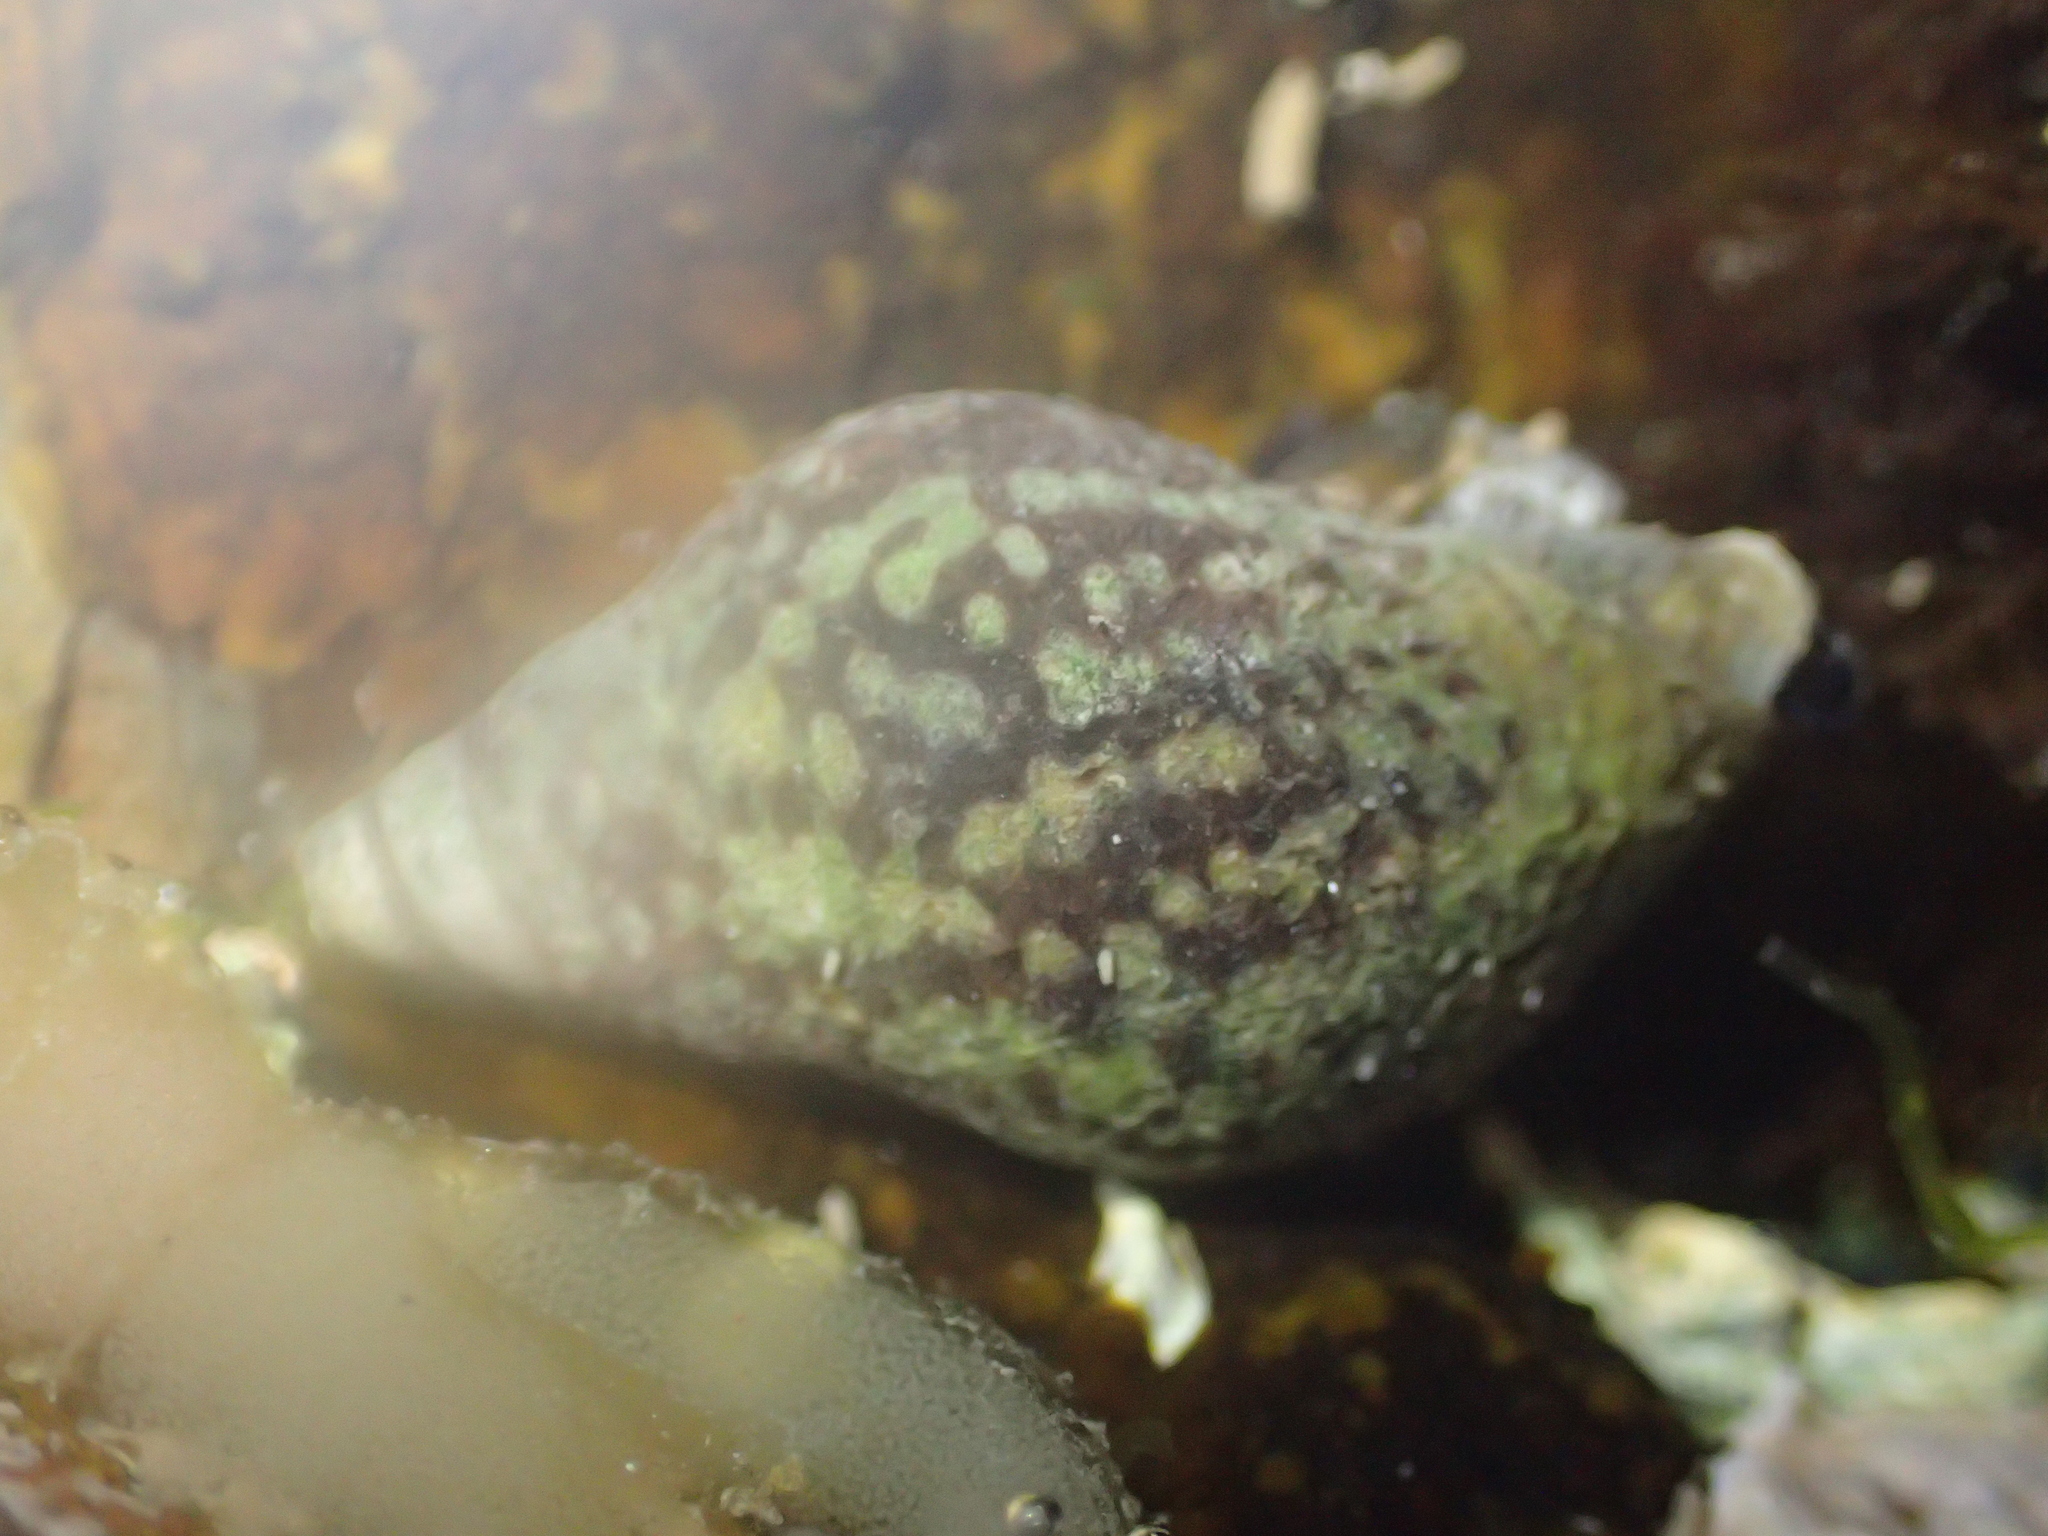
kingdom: Animalia
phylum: Mollusca
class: Gastropoda
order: Neogastropoda
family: Cominellidae
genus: Cominella
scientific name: Cominella maculosa
